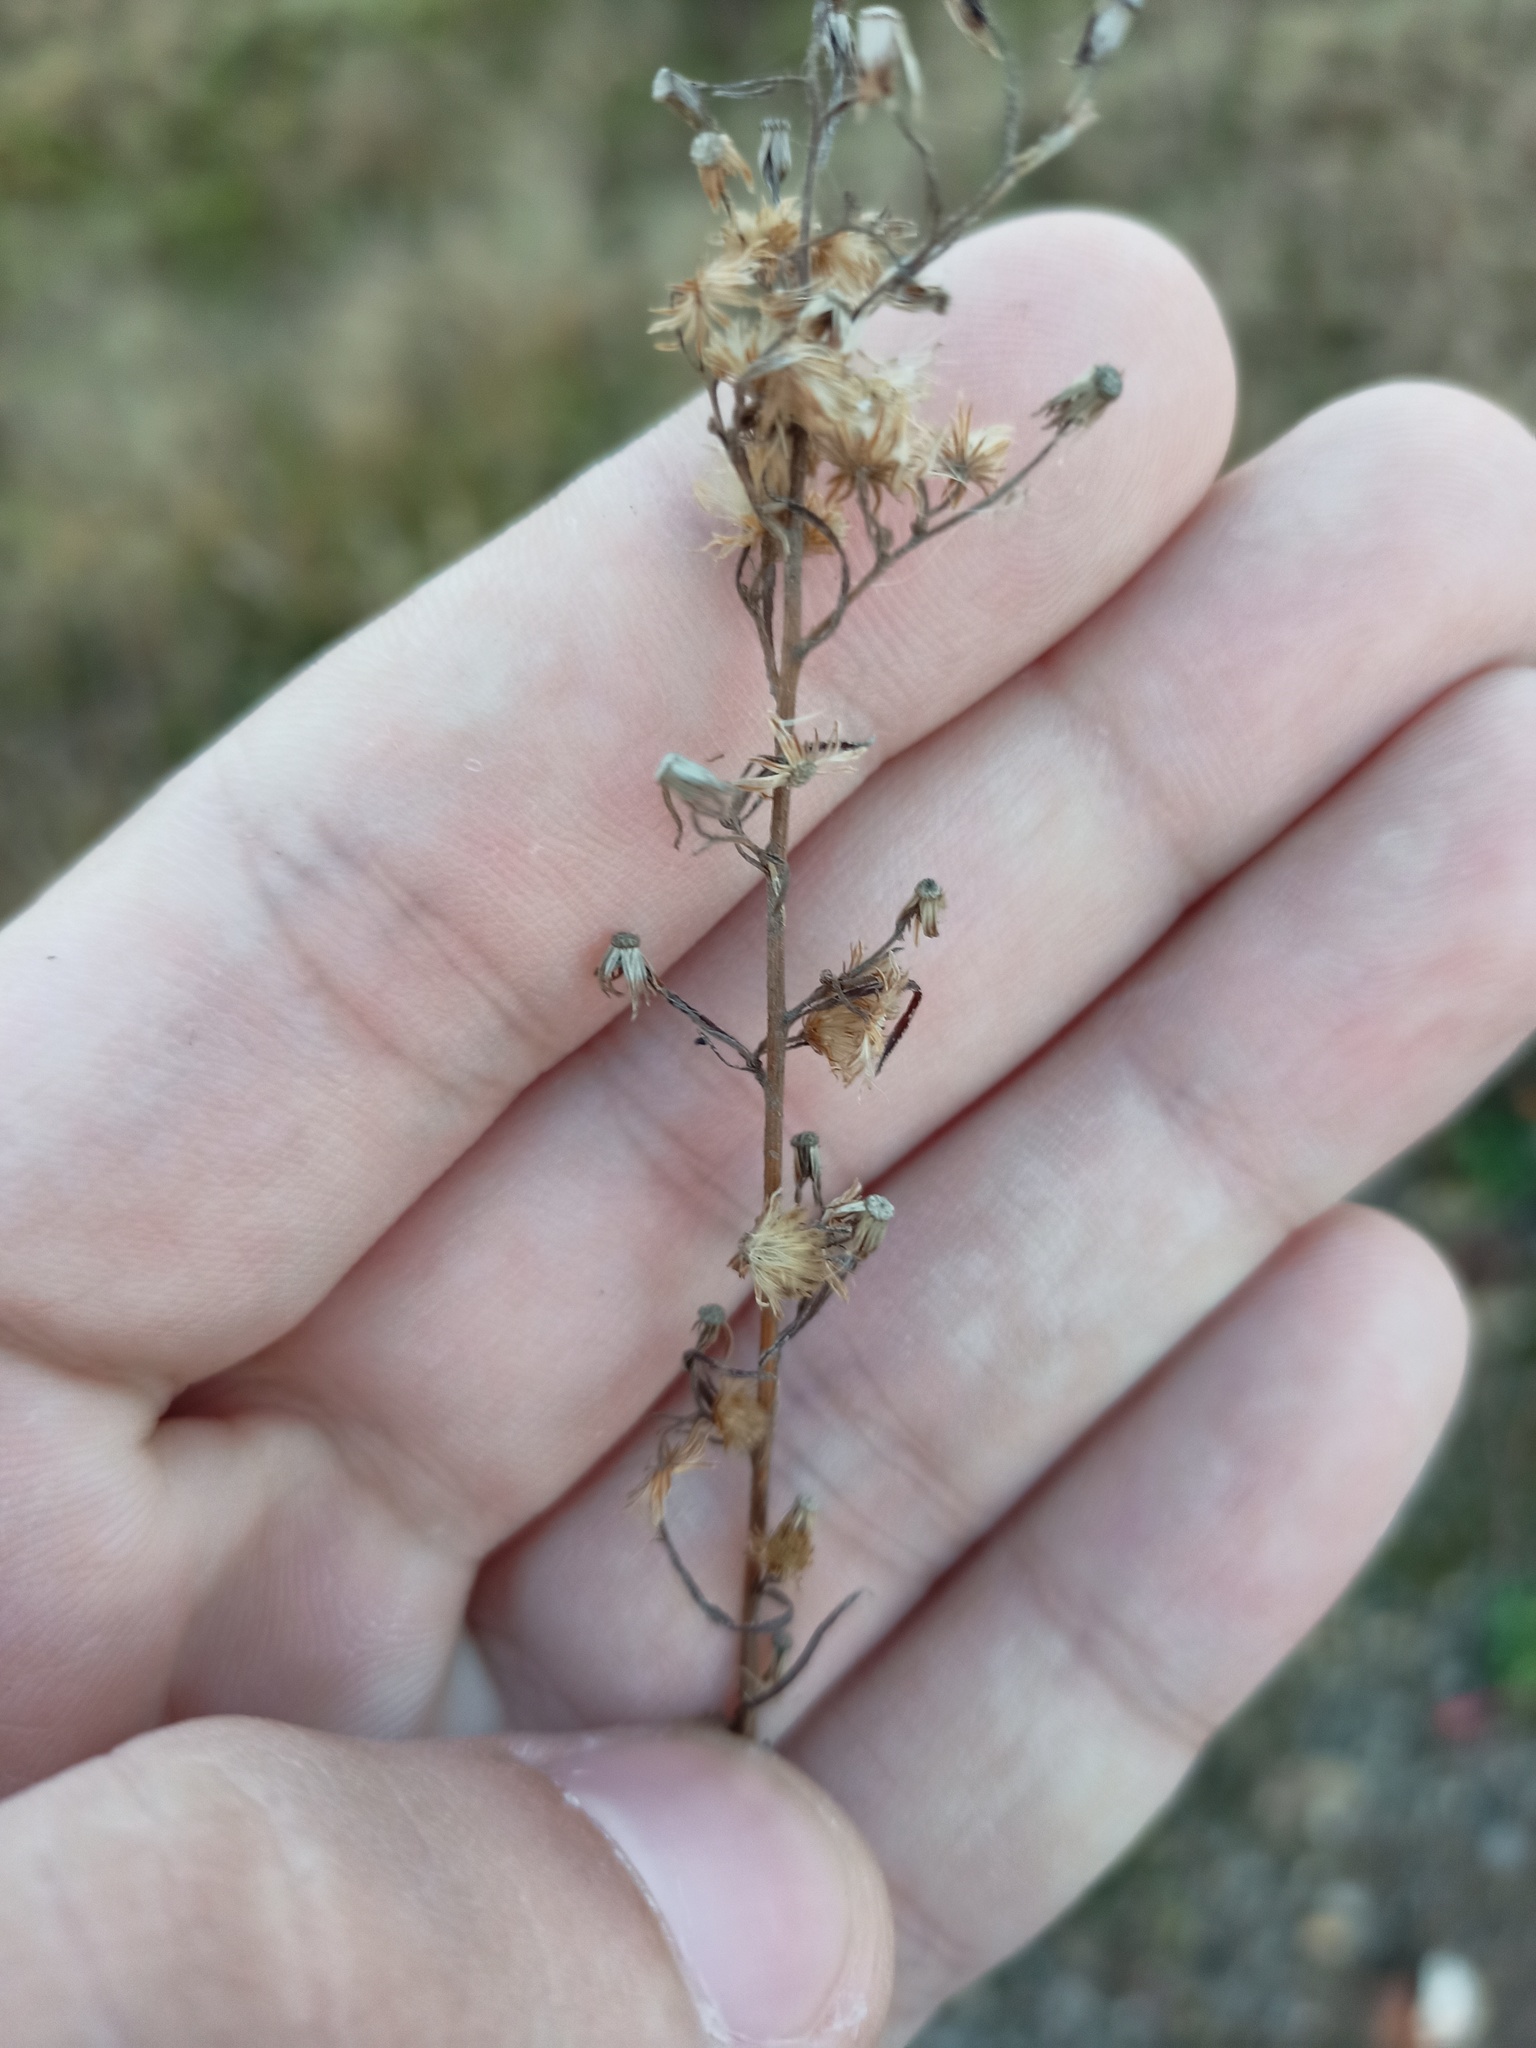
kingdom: Plantae
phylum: Tracheophyta
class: Magnoliopsida
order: Asterales
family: Asteraceae
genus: Erigeron
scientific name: Erigeron canadensis
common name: Canadian fleabane
